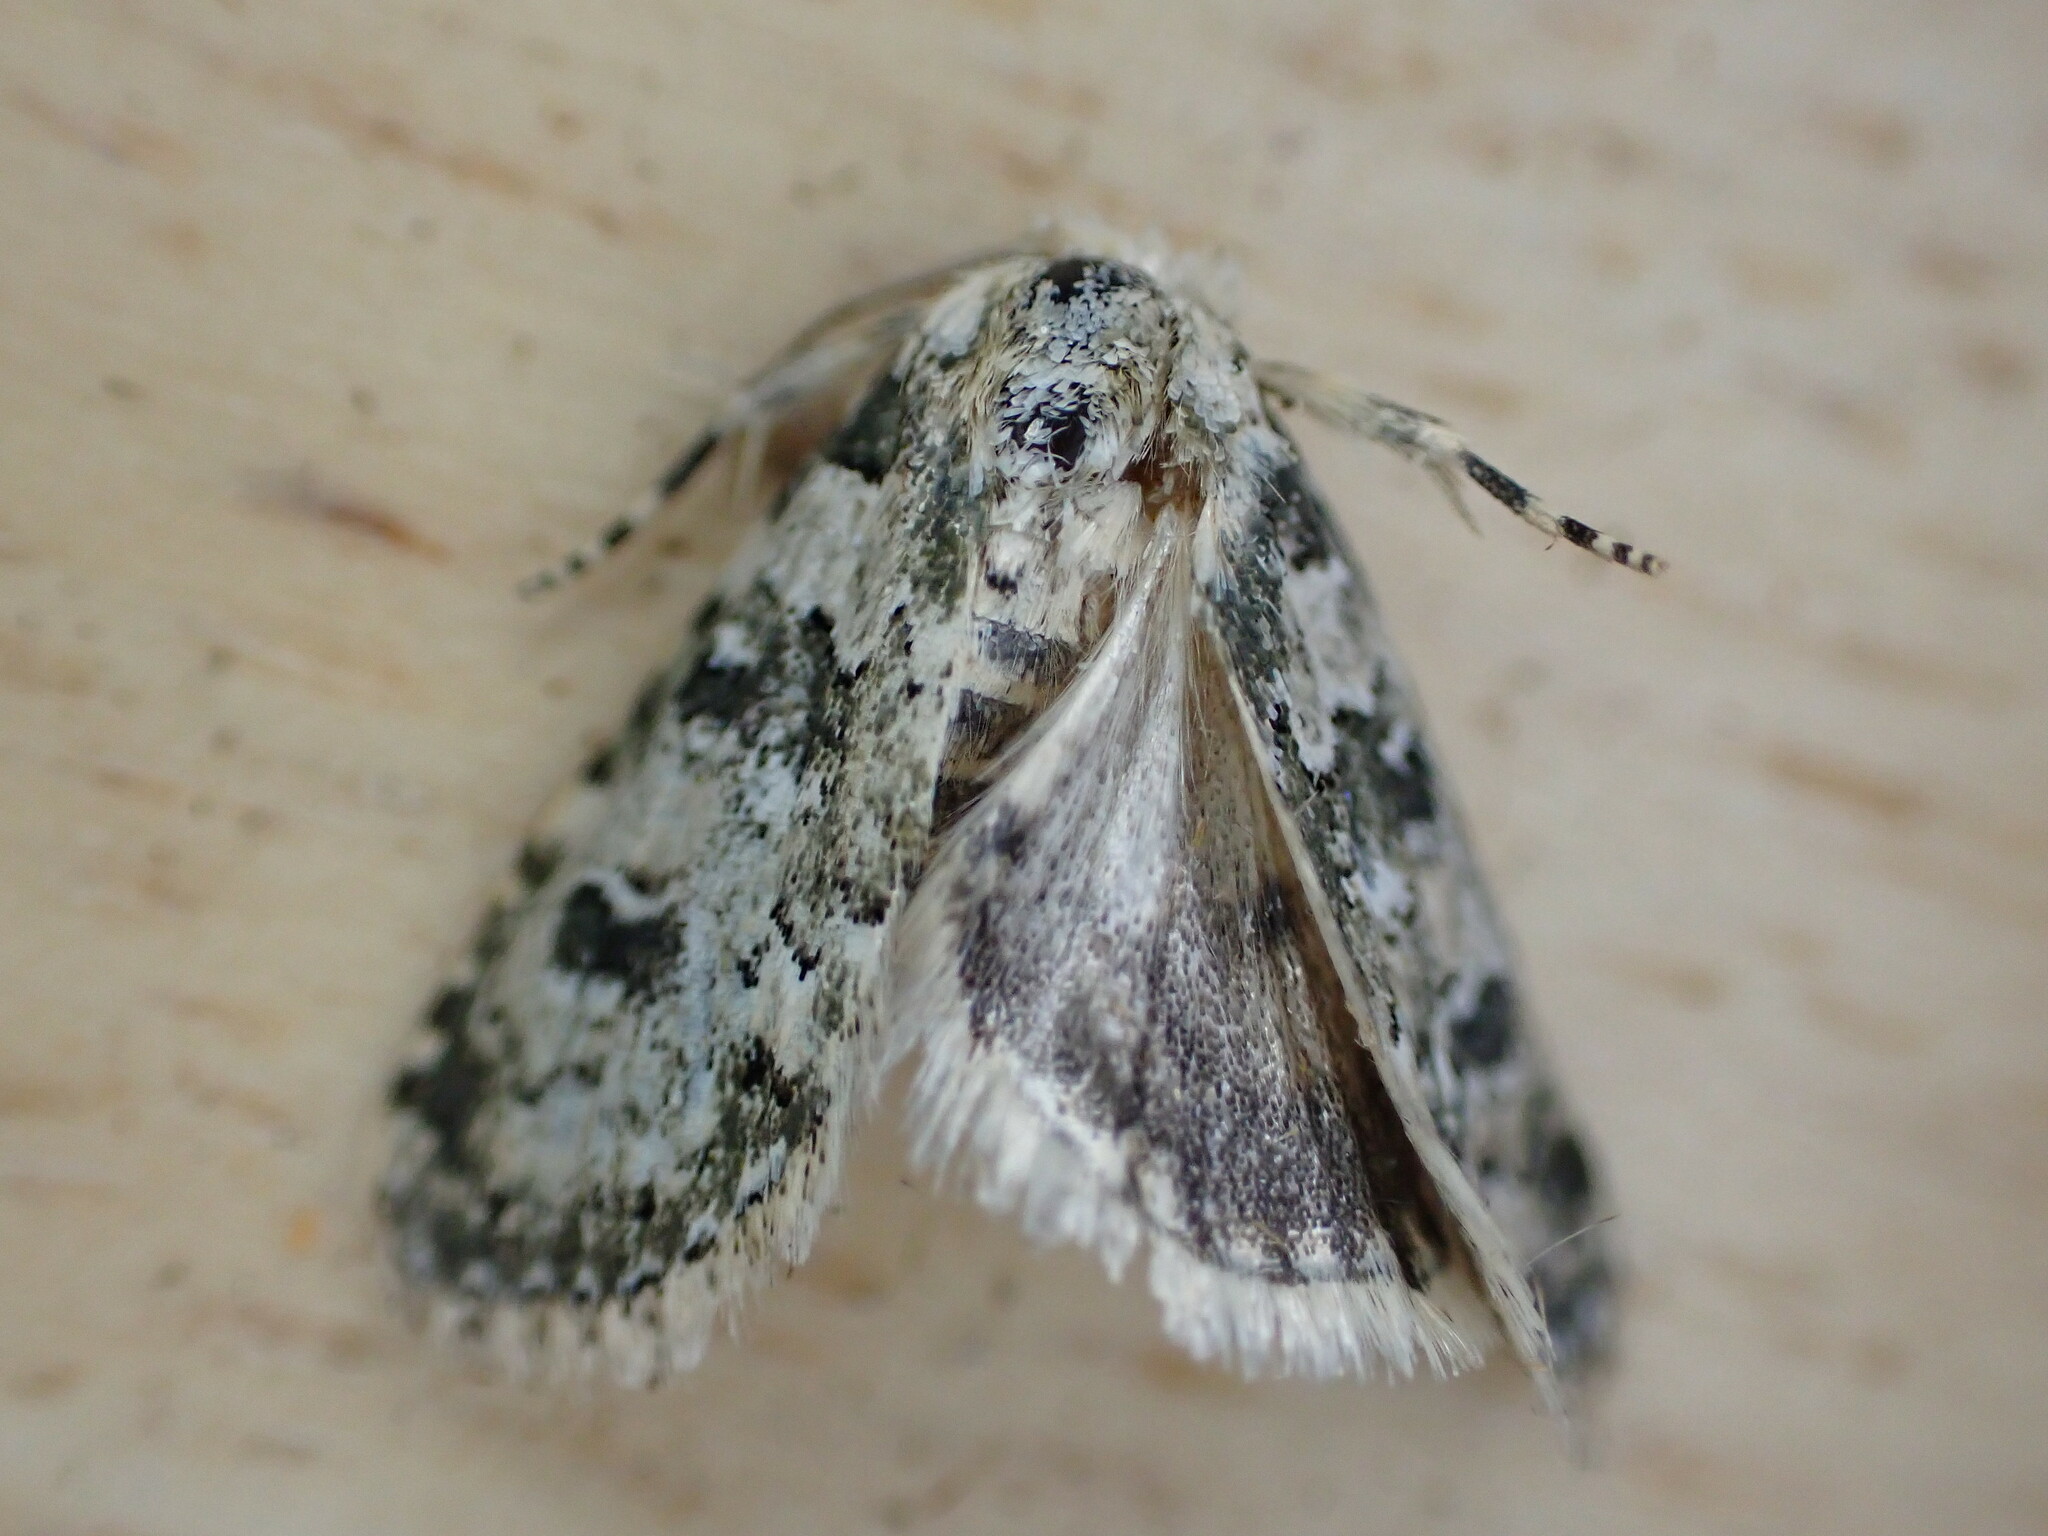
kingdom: Animalia
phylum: Arthropoda
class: Insecta
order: Lepidoptera
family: Noctuidae
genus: Bryophila
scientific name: Bryophila domestica
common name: Marbled beauty
